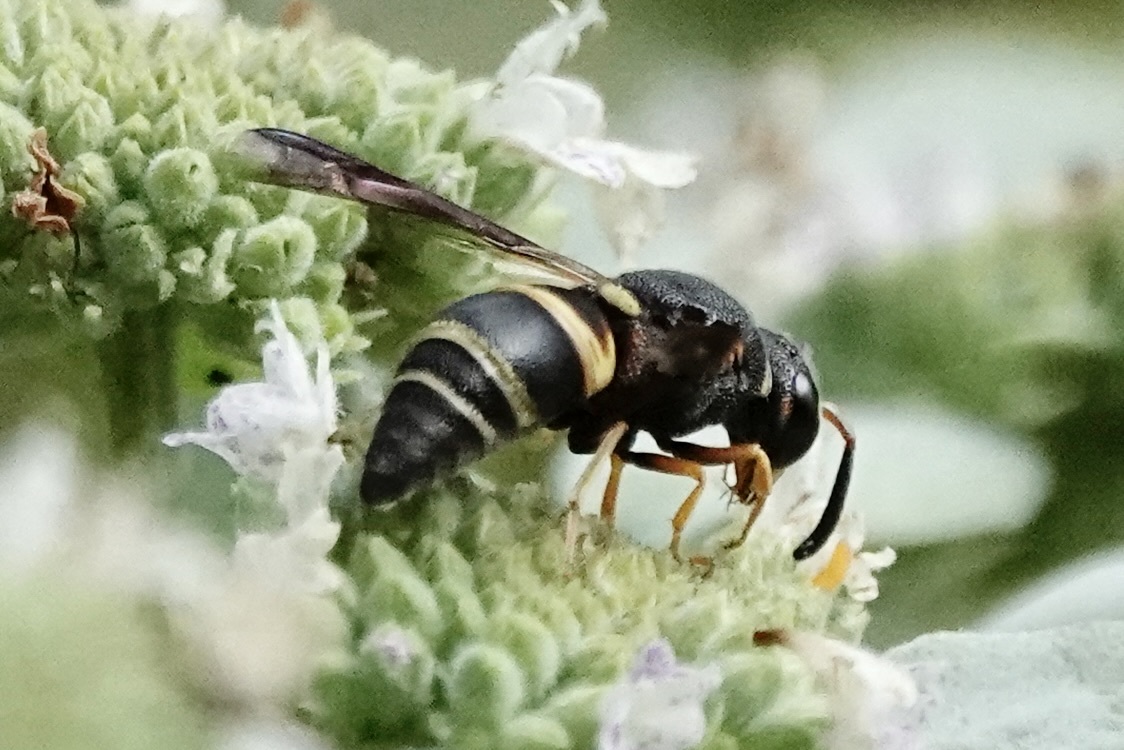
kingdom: Animalia
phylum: Arthropoda
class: Insecta
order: Hymenoptera
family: Eumenidae
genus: Euodynerus
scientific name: Euodynerus hidalgo
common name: Wasp
